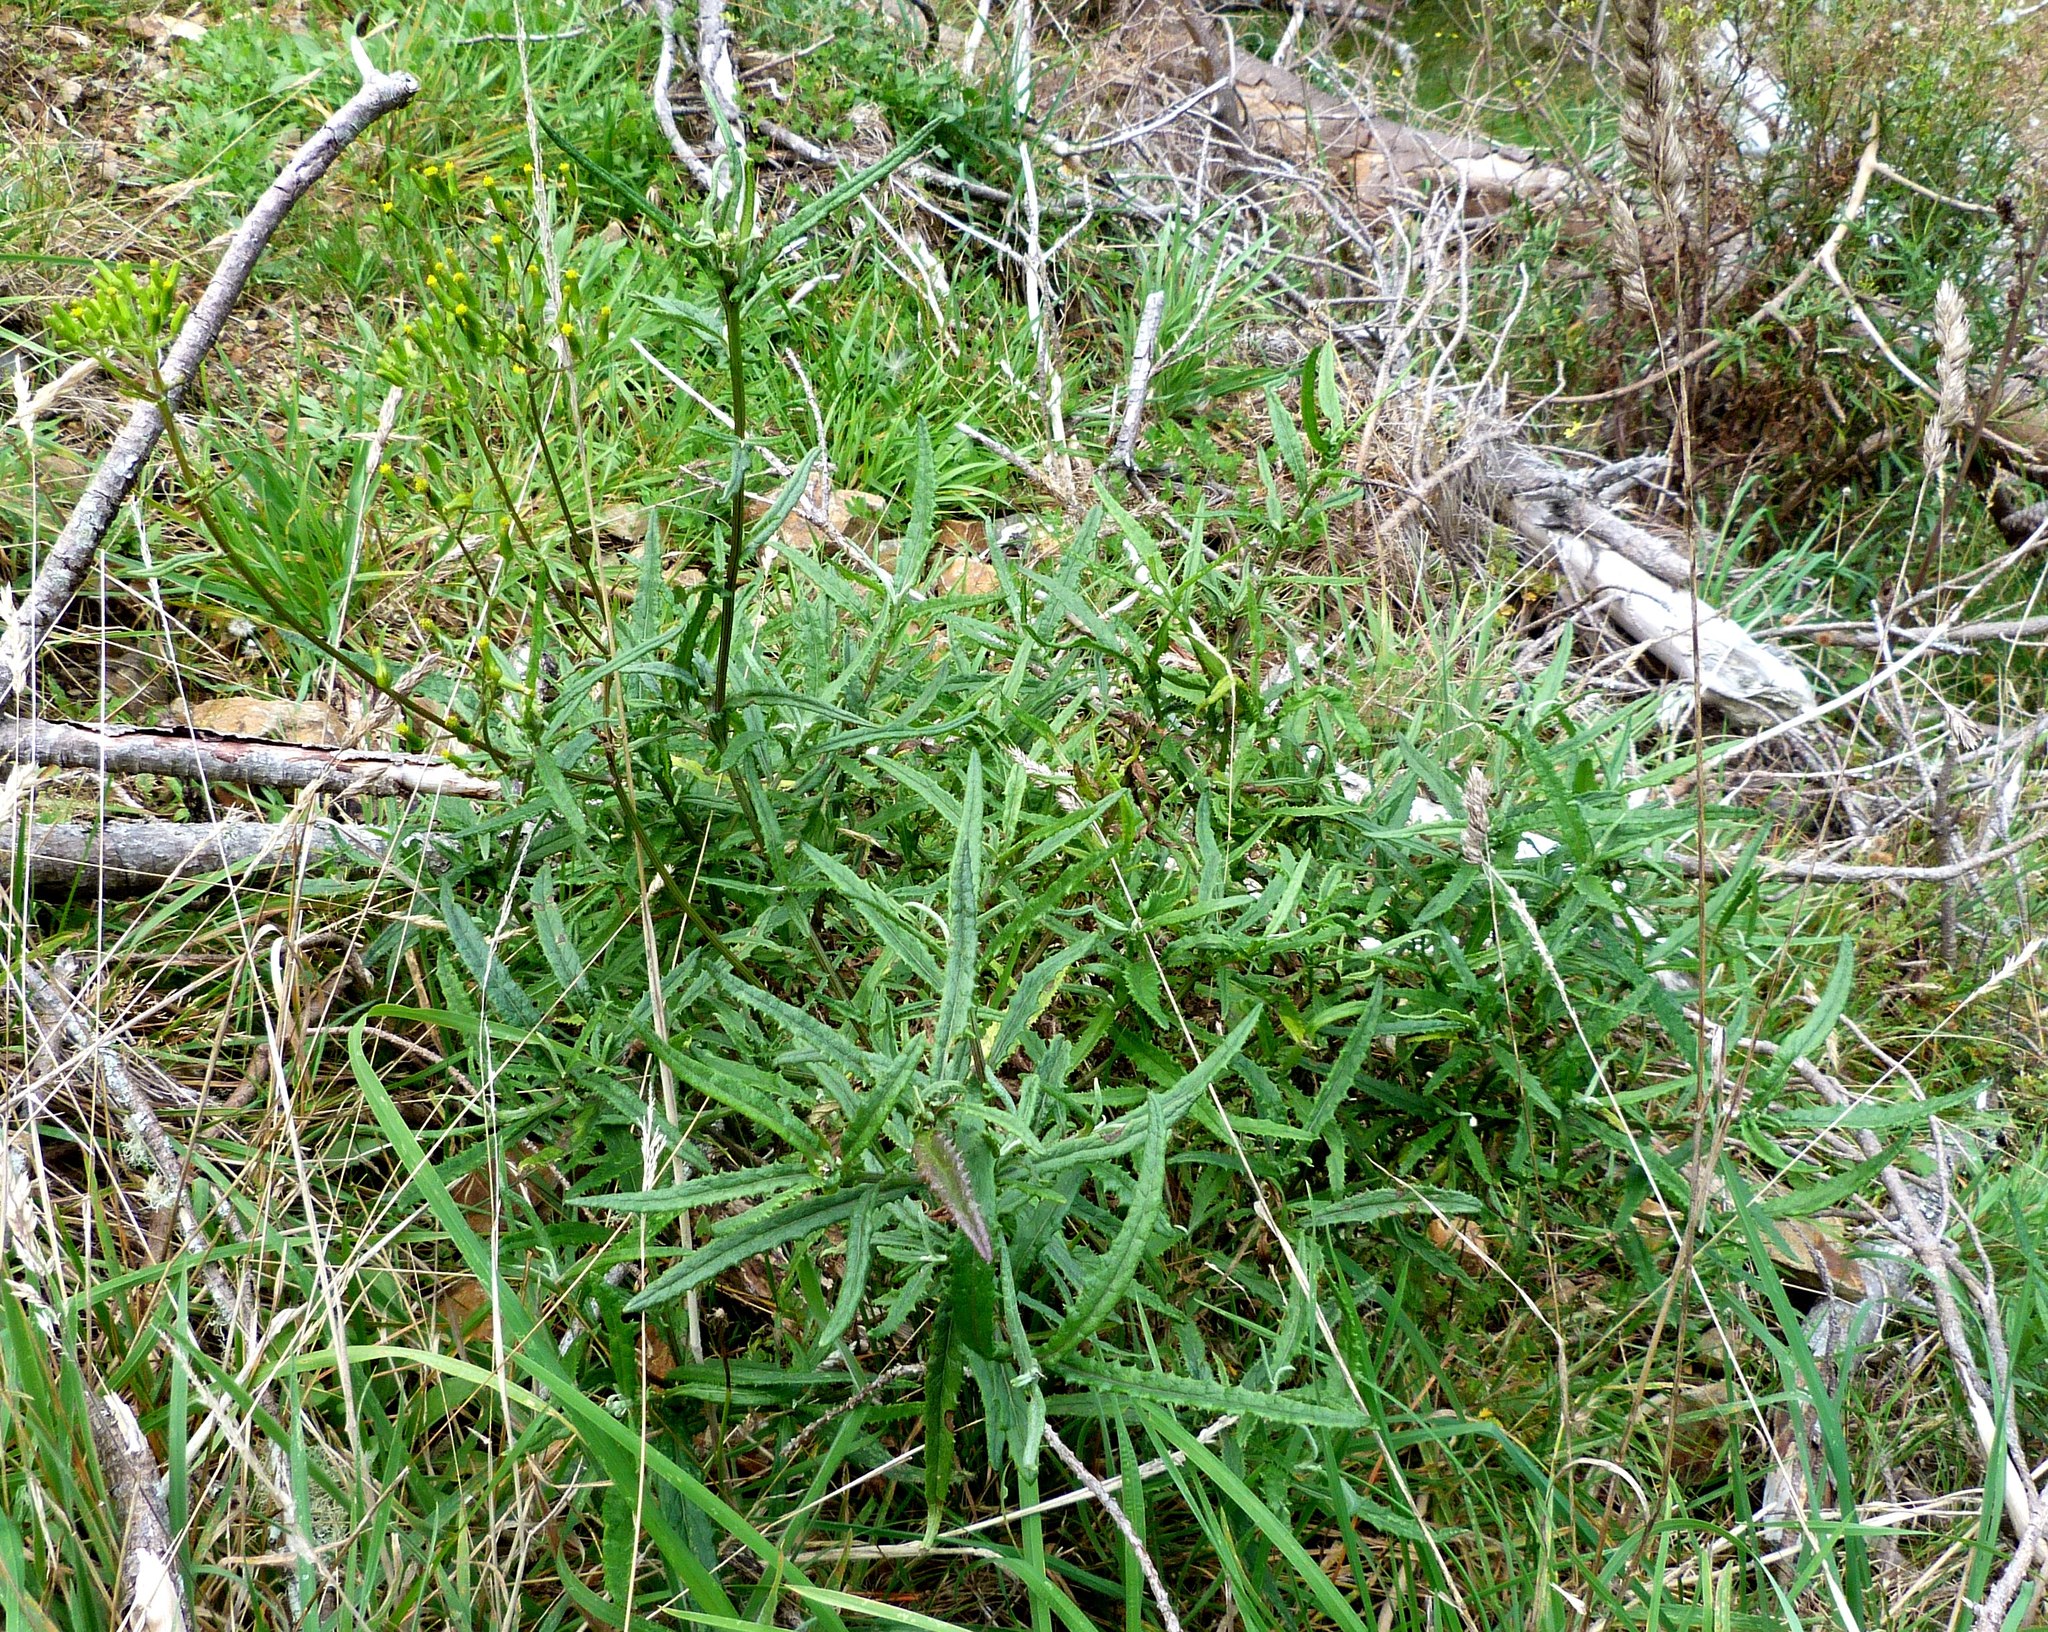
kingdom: Plantae
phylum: Tracheophyta
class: Magnoliopsida
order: Asterales
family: Asteraceae
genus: Senecio
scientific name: Senecio minimus
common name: Toothed fireweed
